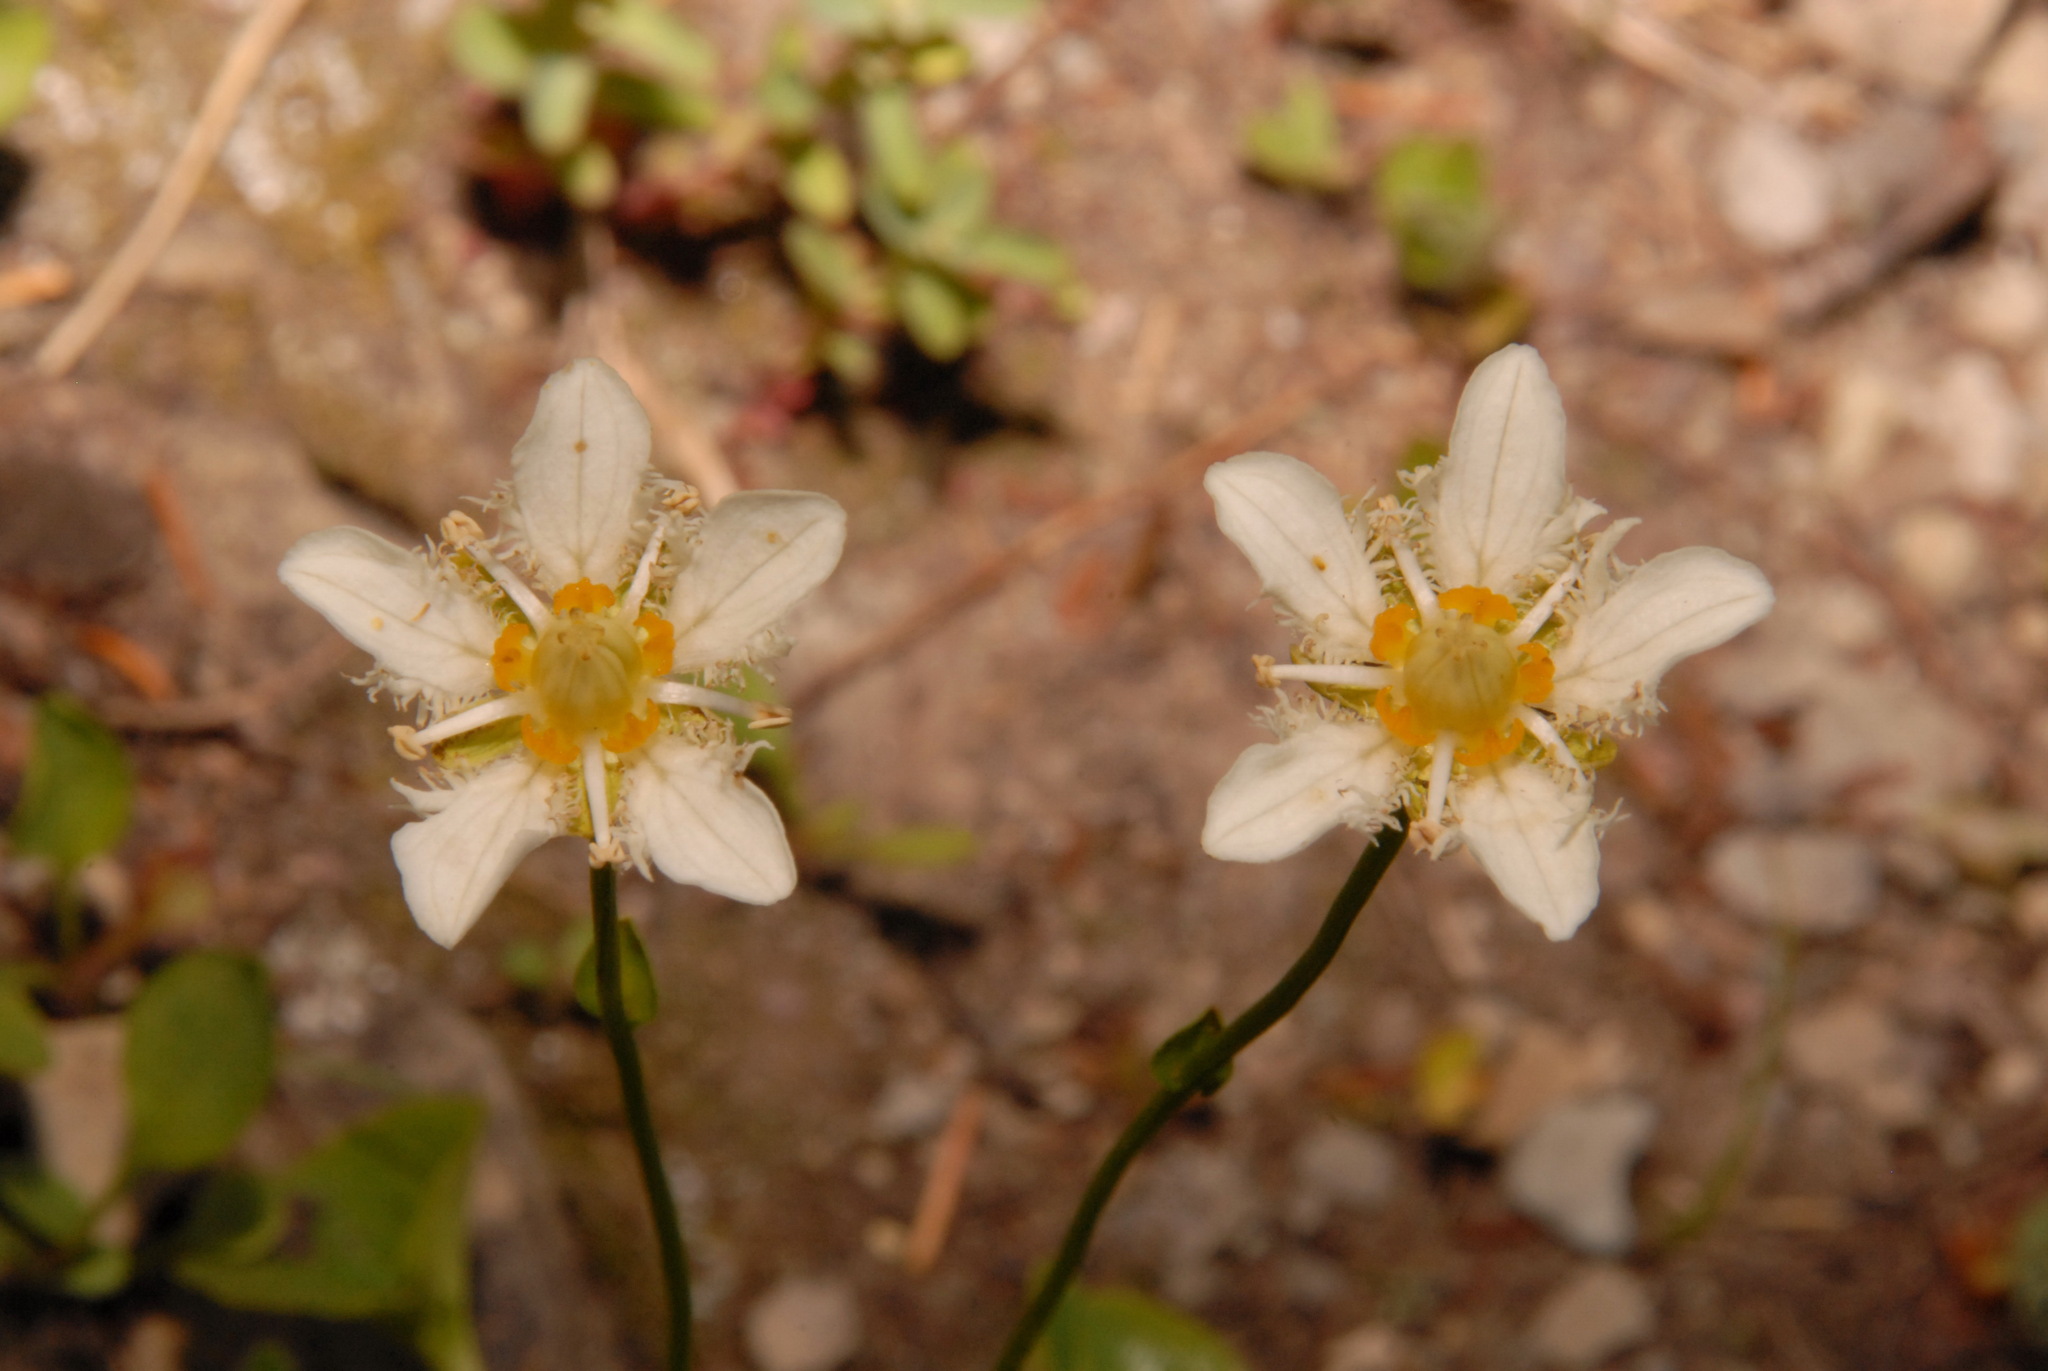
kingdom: Plantae
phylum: Tracheophyta
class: Magnoliopsida
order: Celastrales
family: Parnassiaceae
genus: Parnassia
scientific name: Parnassia fimbriata
